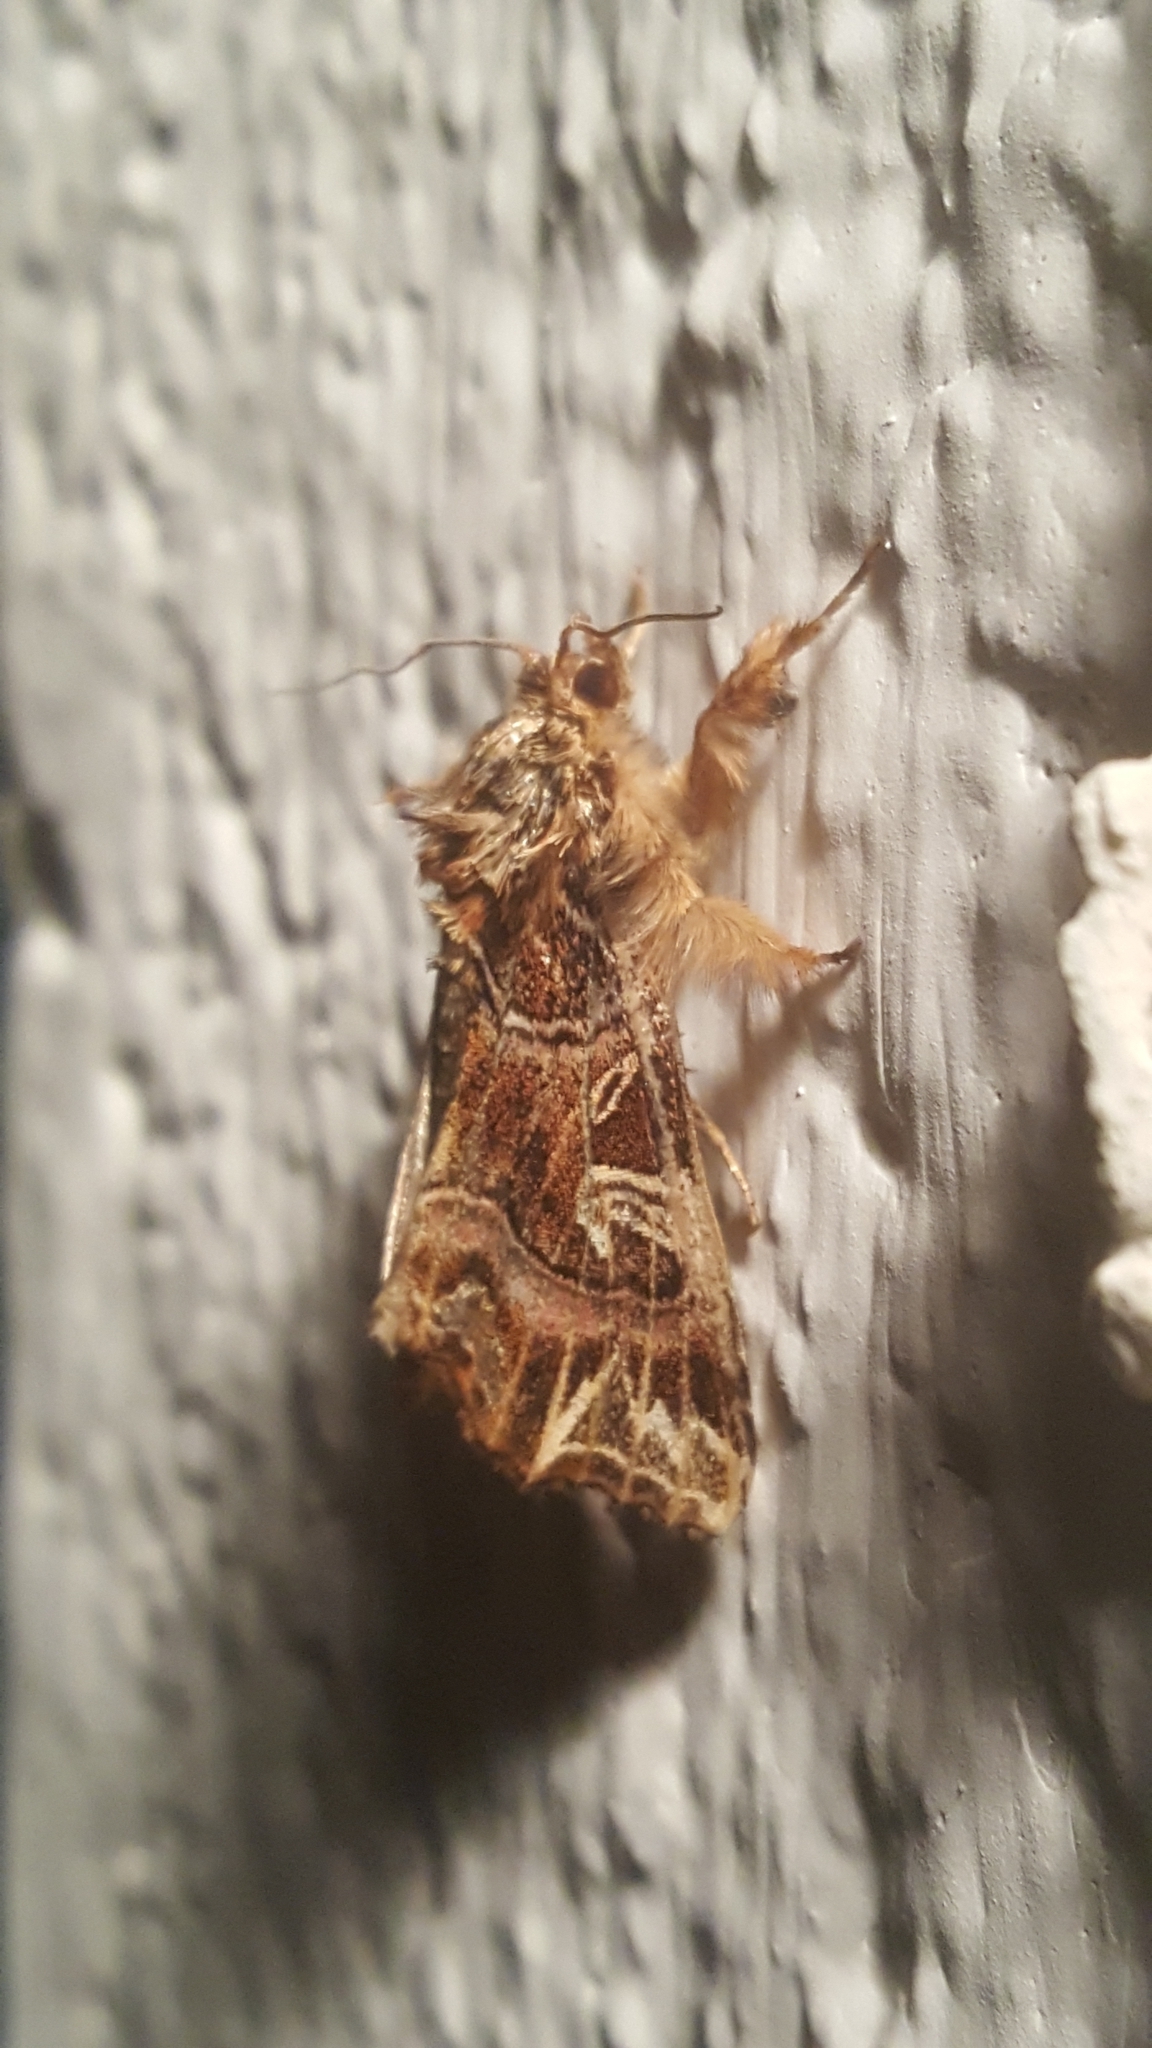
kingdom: Animalia
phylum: Arthropoda
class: Insecta
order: Lepidoptera
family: Noctuidae
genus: Callopistria
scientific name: Callopistria juventina
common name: Latin
